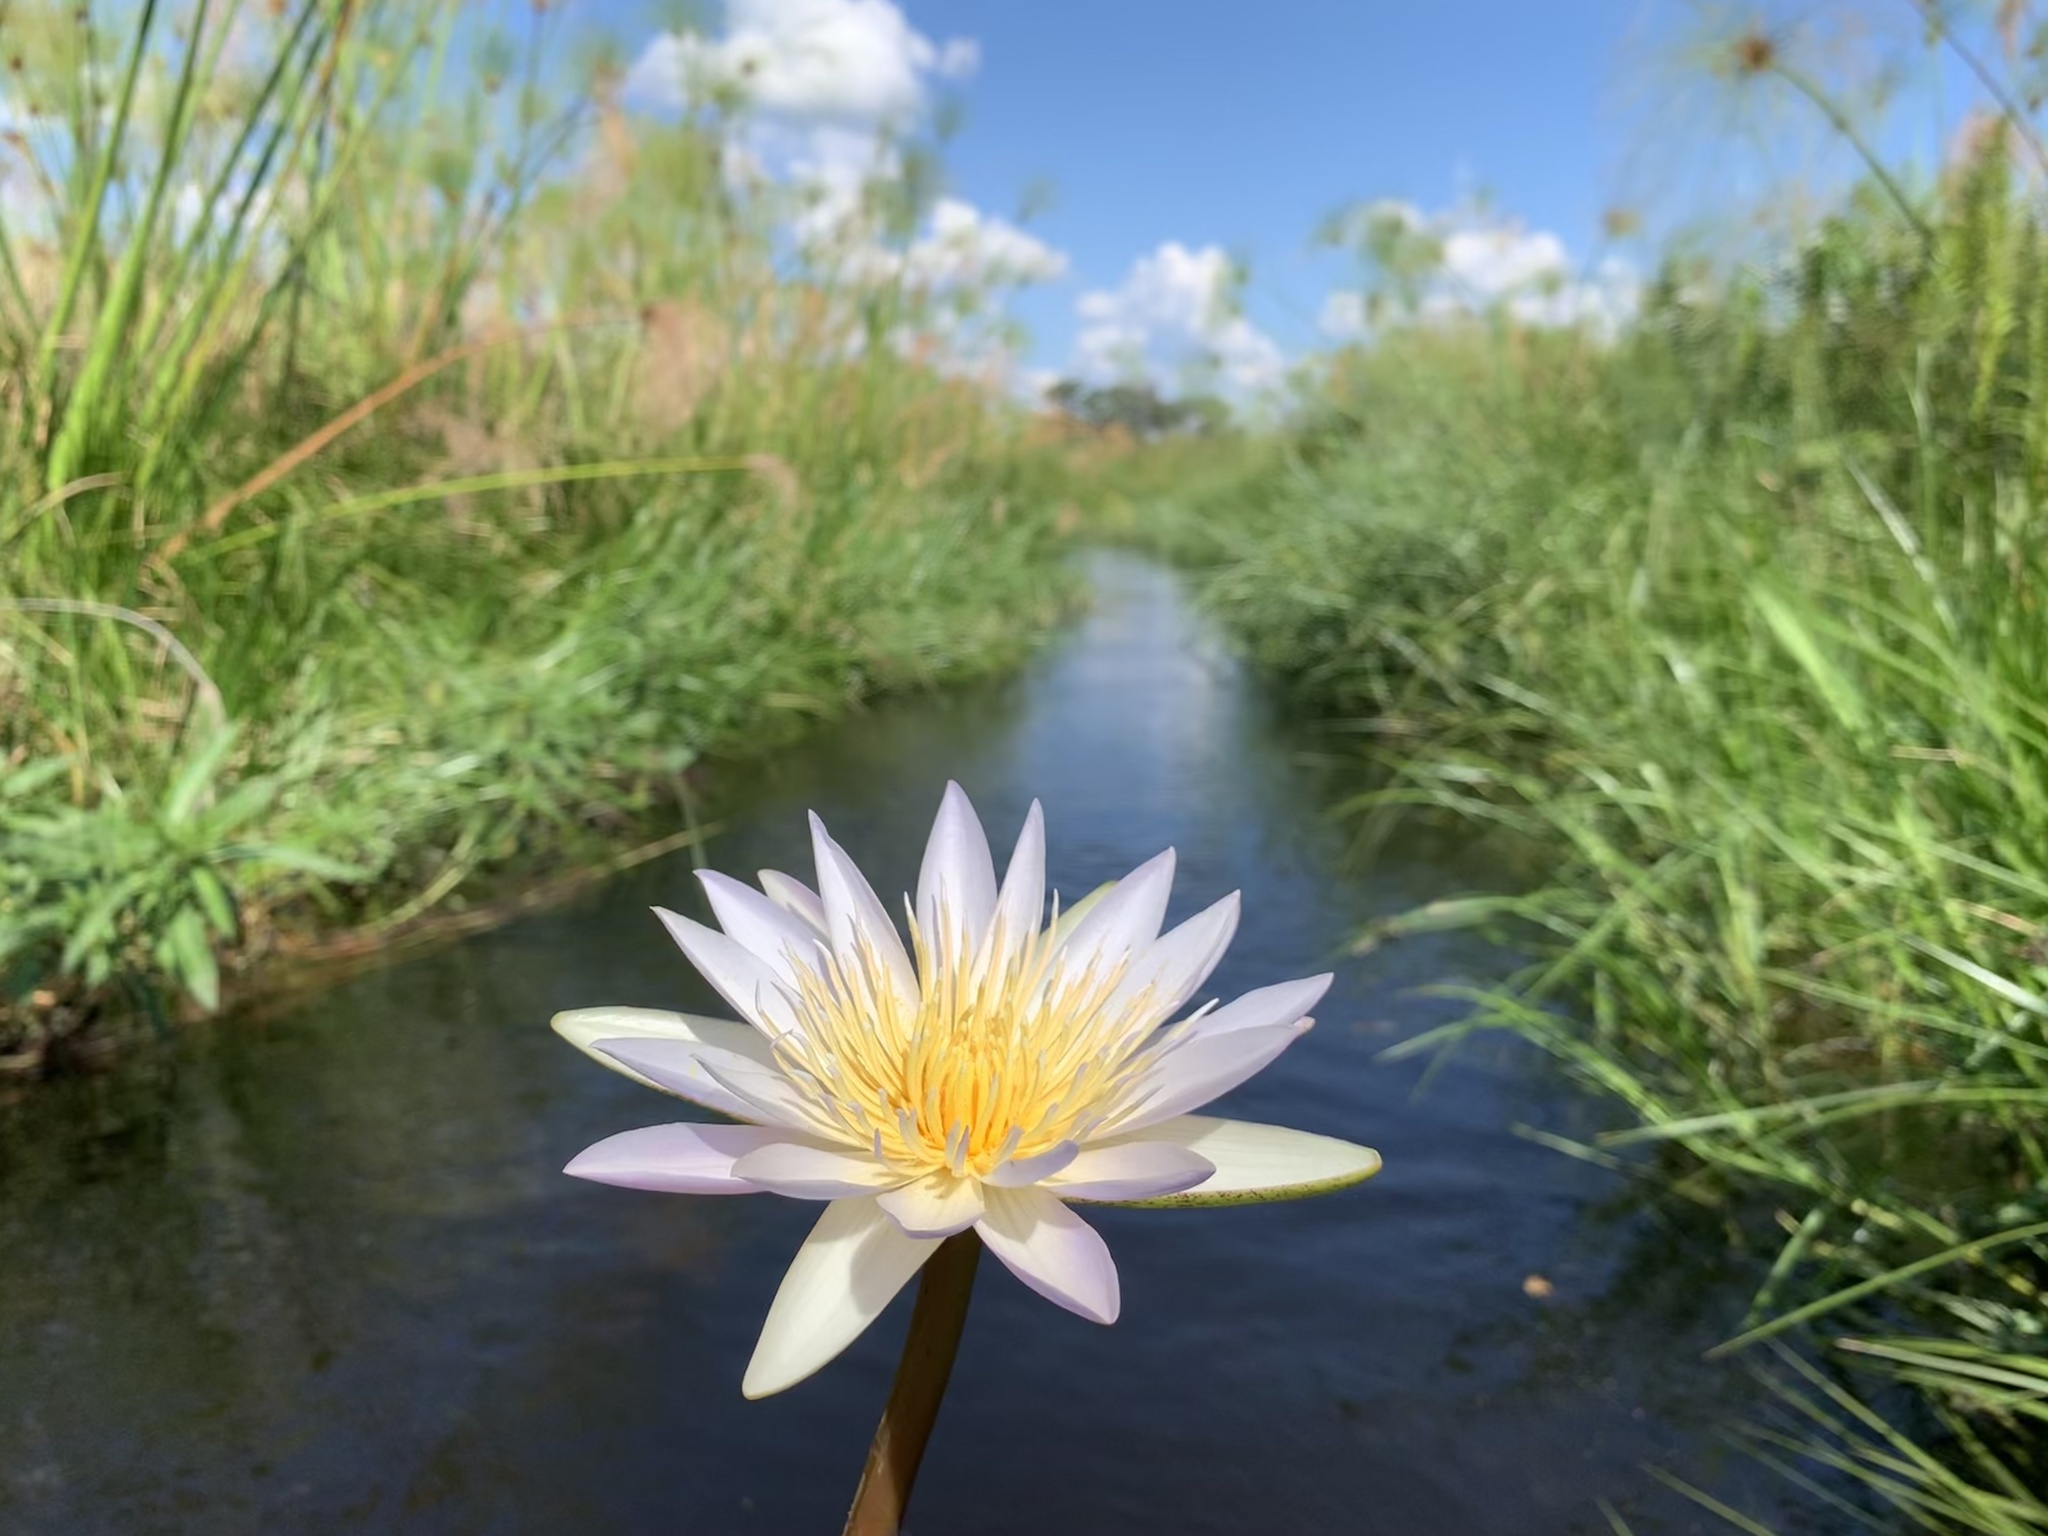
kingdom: Plantae
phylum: Tracheophyta
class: Magnoliopsida
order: Nymphaeales
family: Nymphaeaceae
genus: Nymphaea
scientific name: Nymphaea nouchali
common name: Blue lotus
